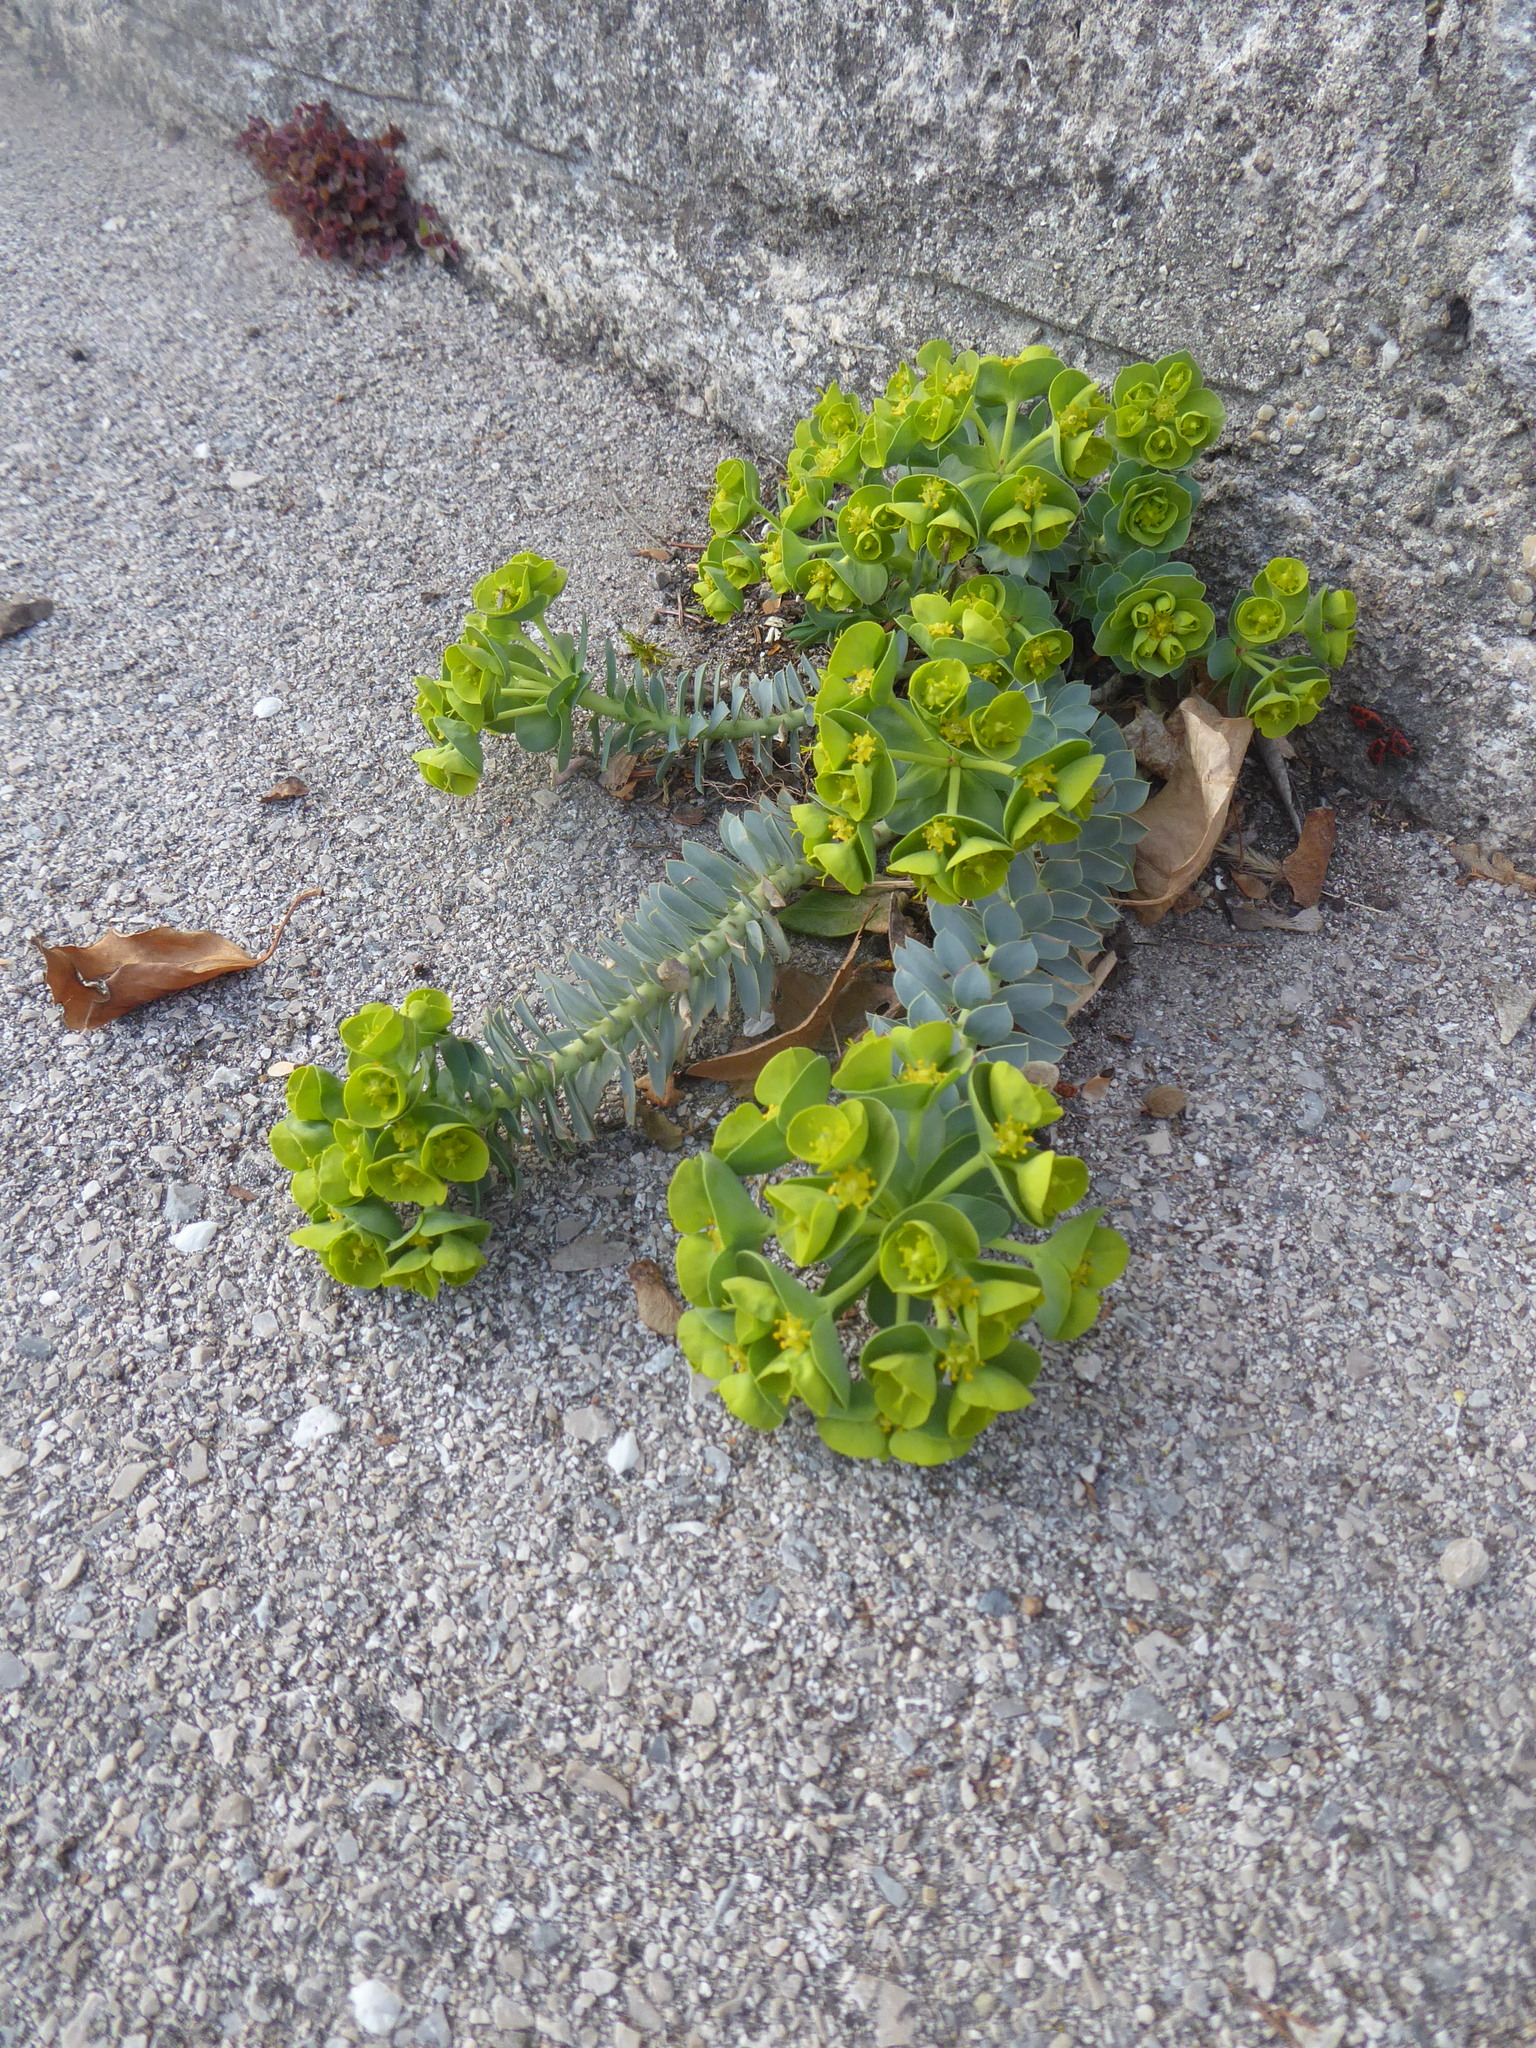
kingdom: Plantae
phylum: Tracheophyta
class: Magnoliopsida
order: Malpighiales
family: Euphorbiaceae
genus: Euphorbia
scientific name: Euphorbia myrsinites
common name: Myrtle spurge
